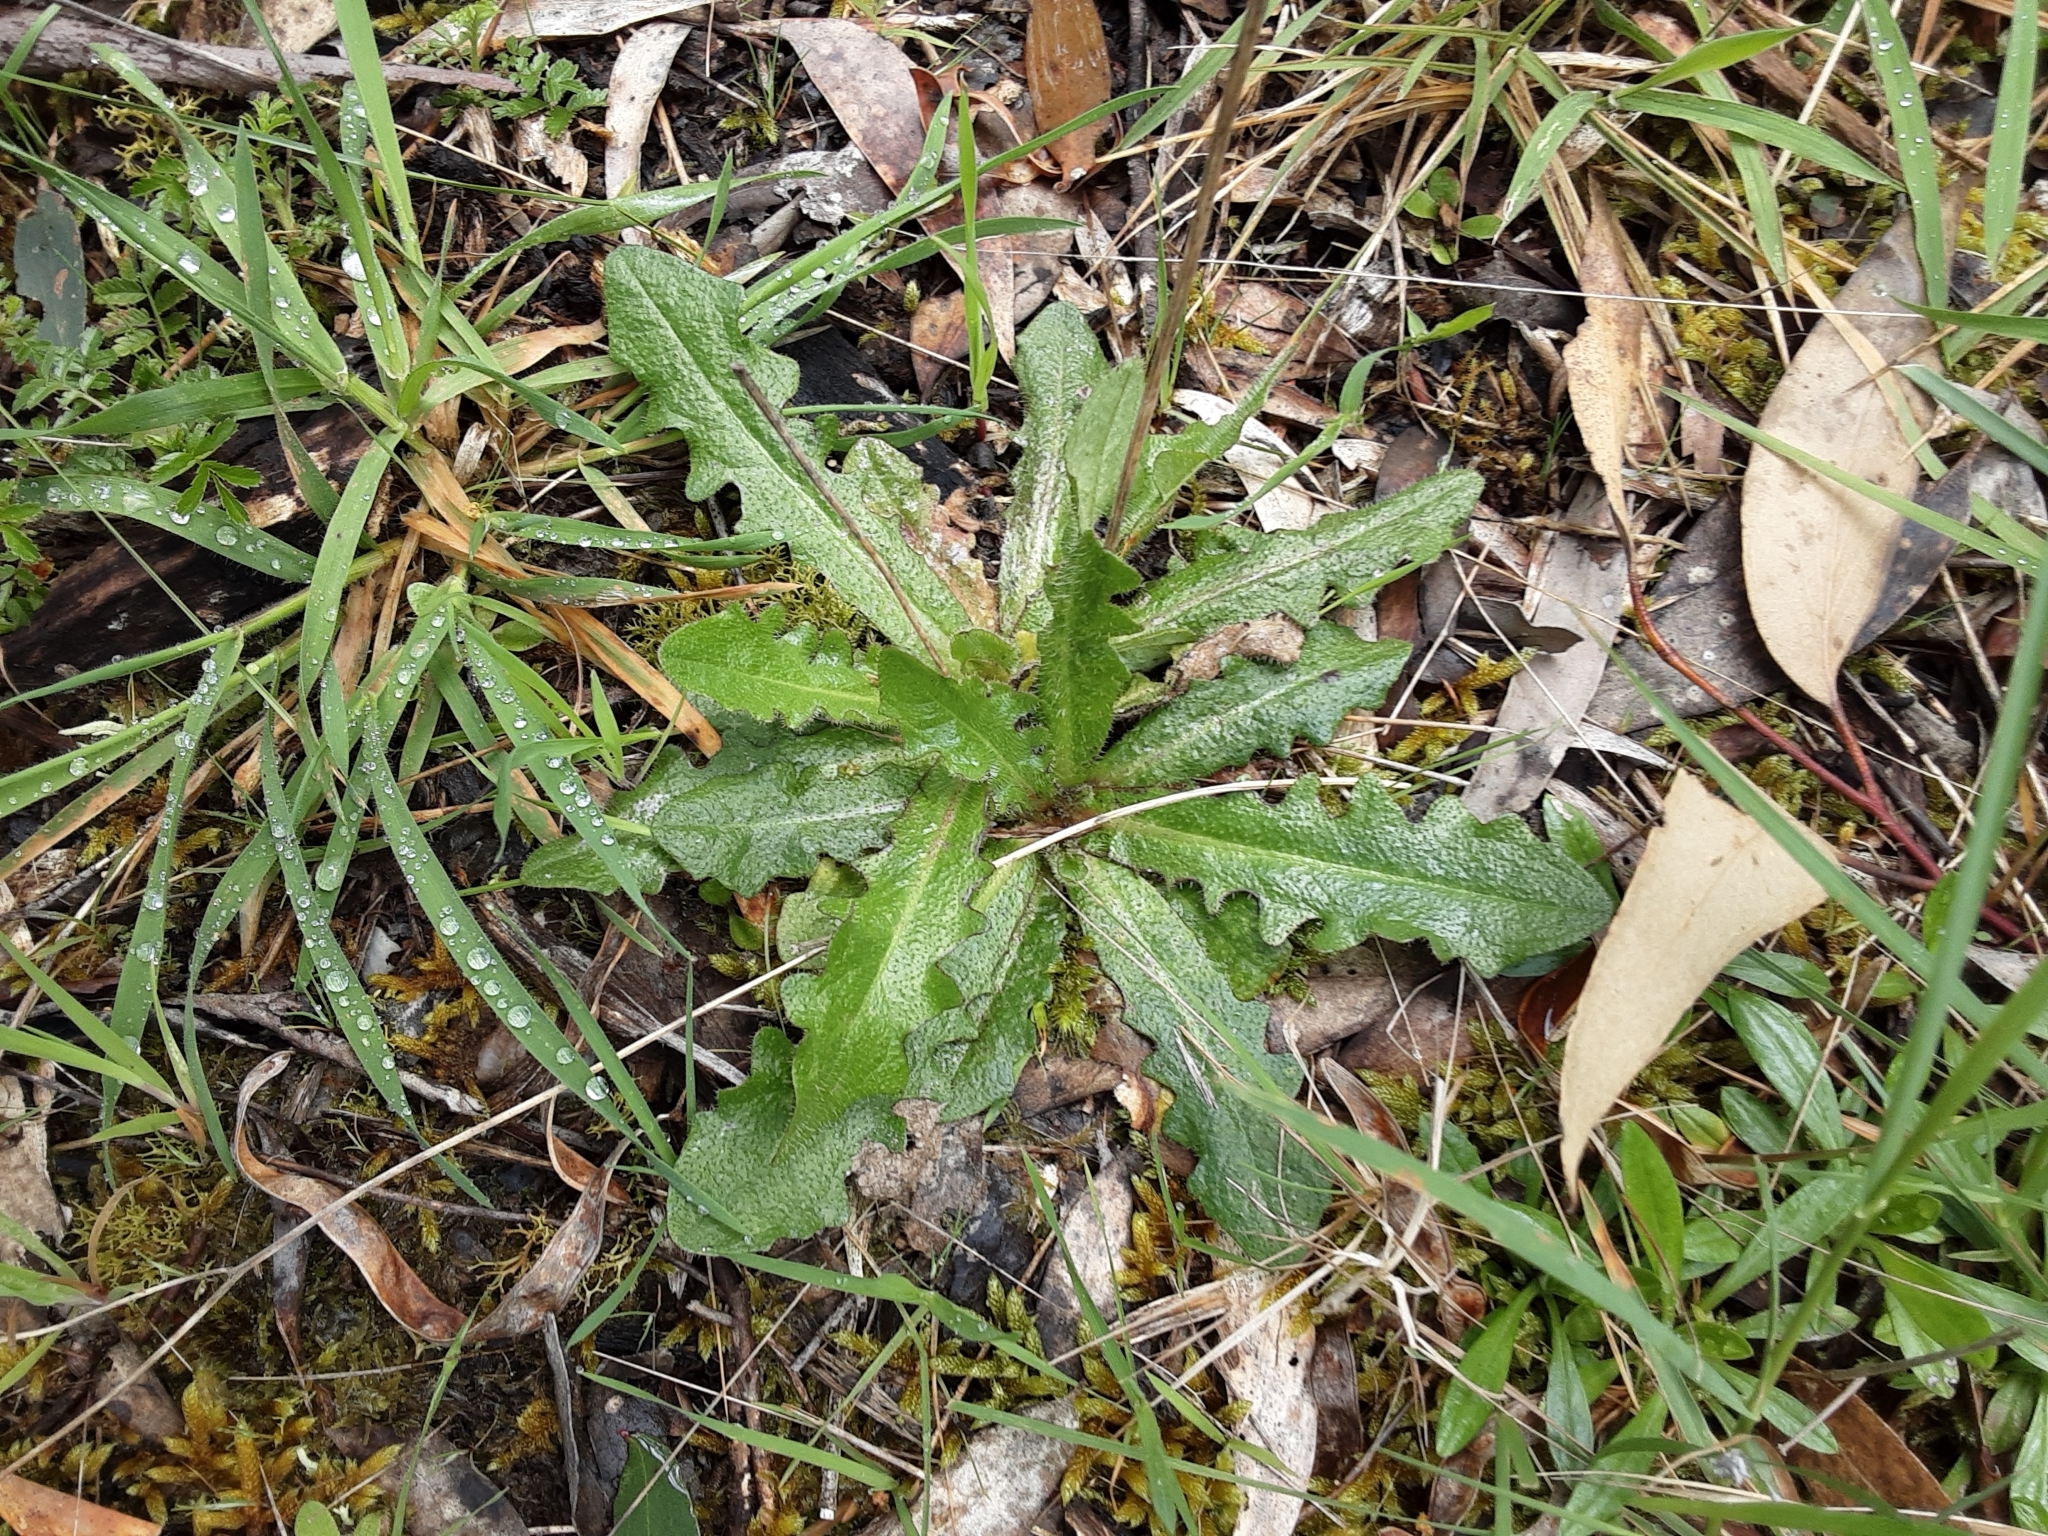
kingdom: Plantae
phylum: Tracheophyta
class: Magnoliopsida
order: Asterales
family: Asteraceae
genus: Hypochaeris
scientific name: Hypochaeris radicata
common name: Flatweed
